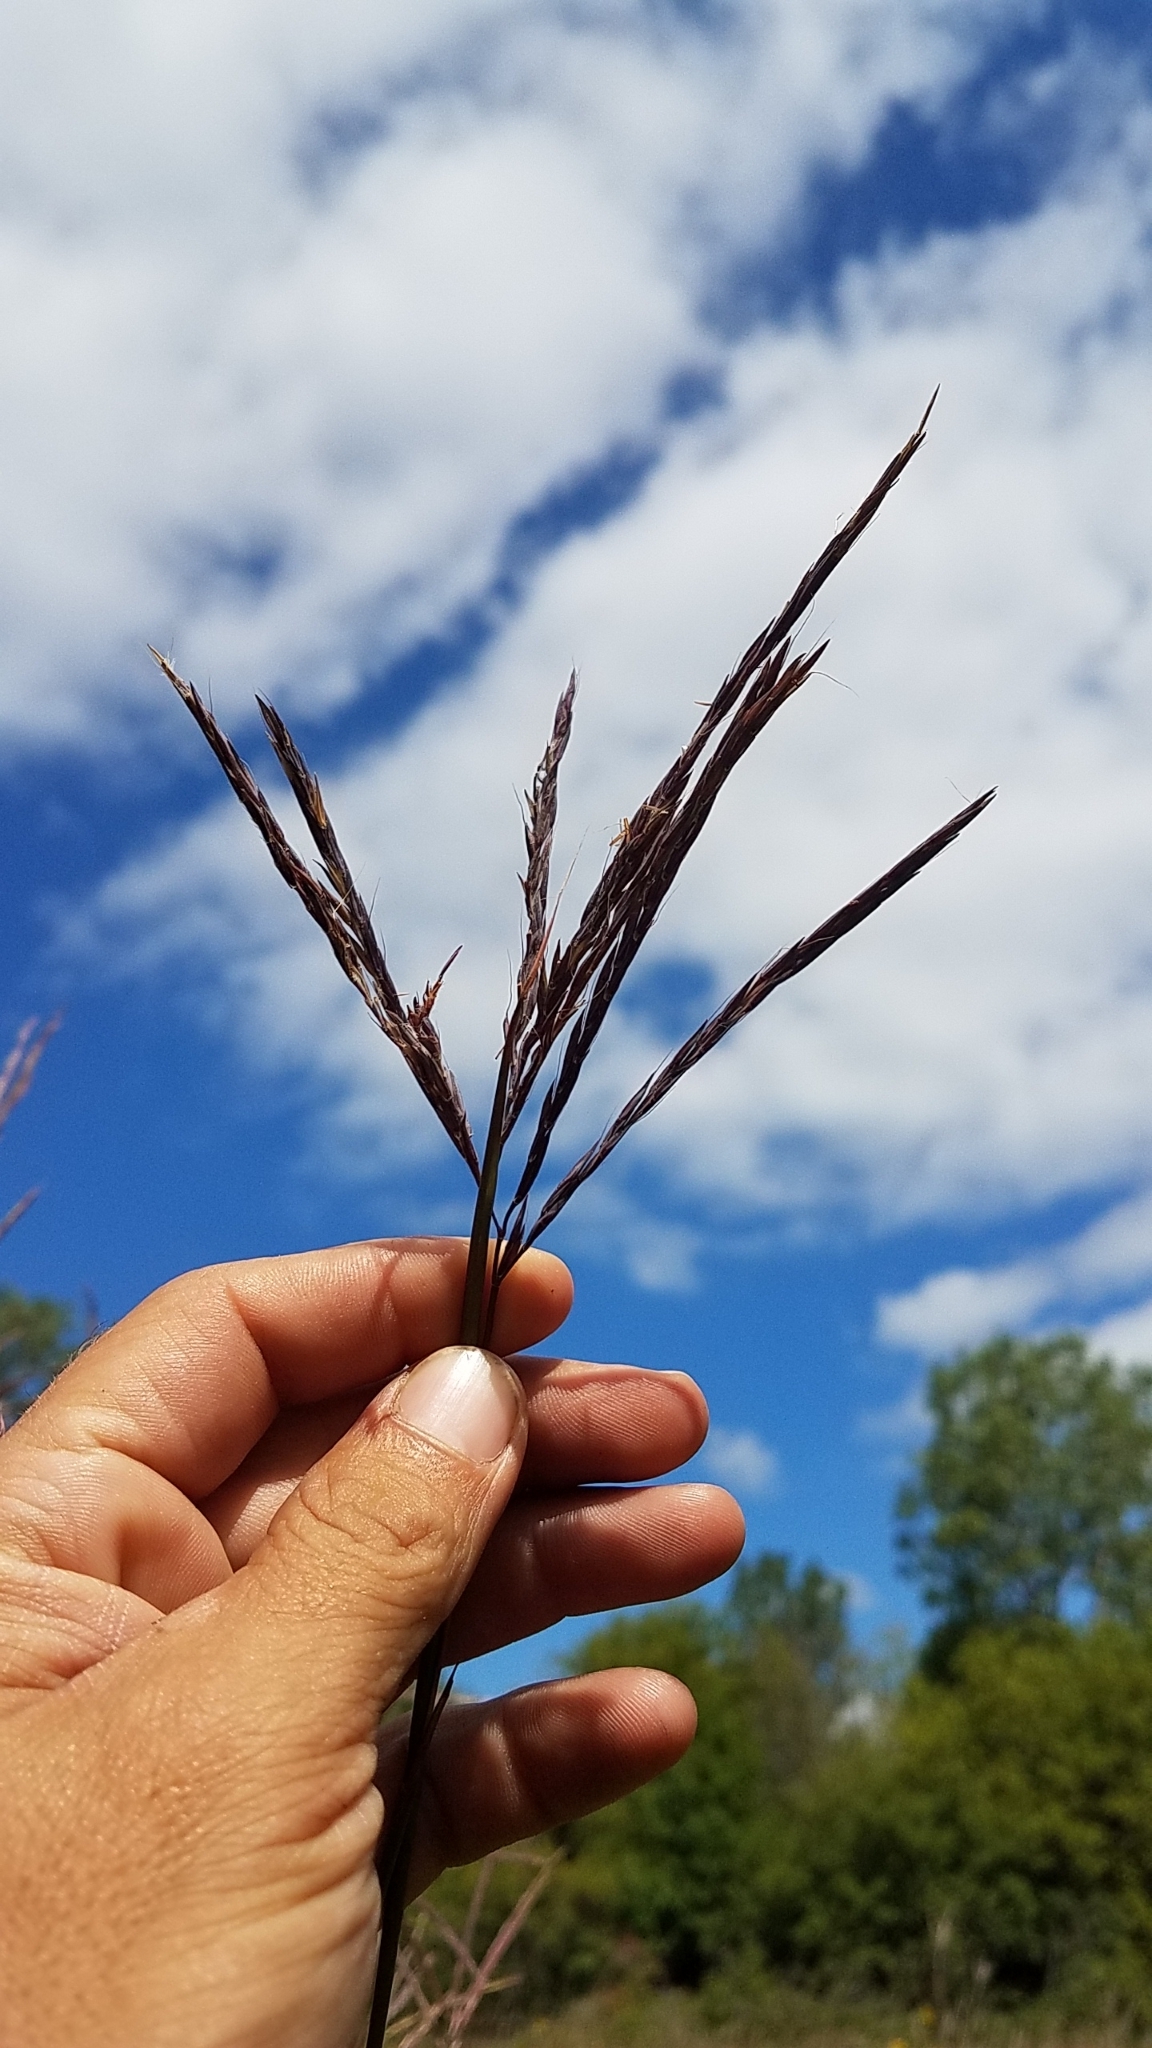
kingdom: Plantae
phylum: Tracheophyta
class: Liliopsida
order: Poales
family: Poaceae
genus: Andropogon
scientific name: Andropogon gerardi
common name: Big bluestem
